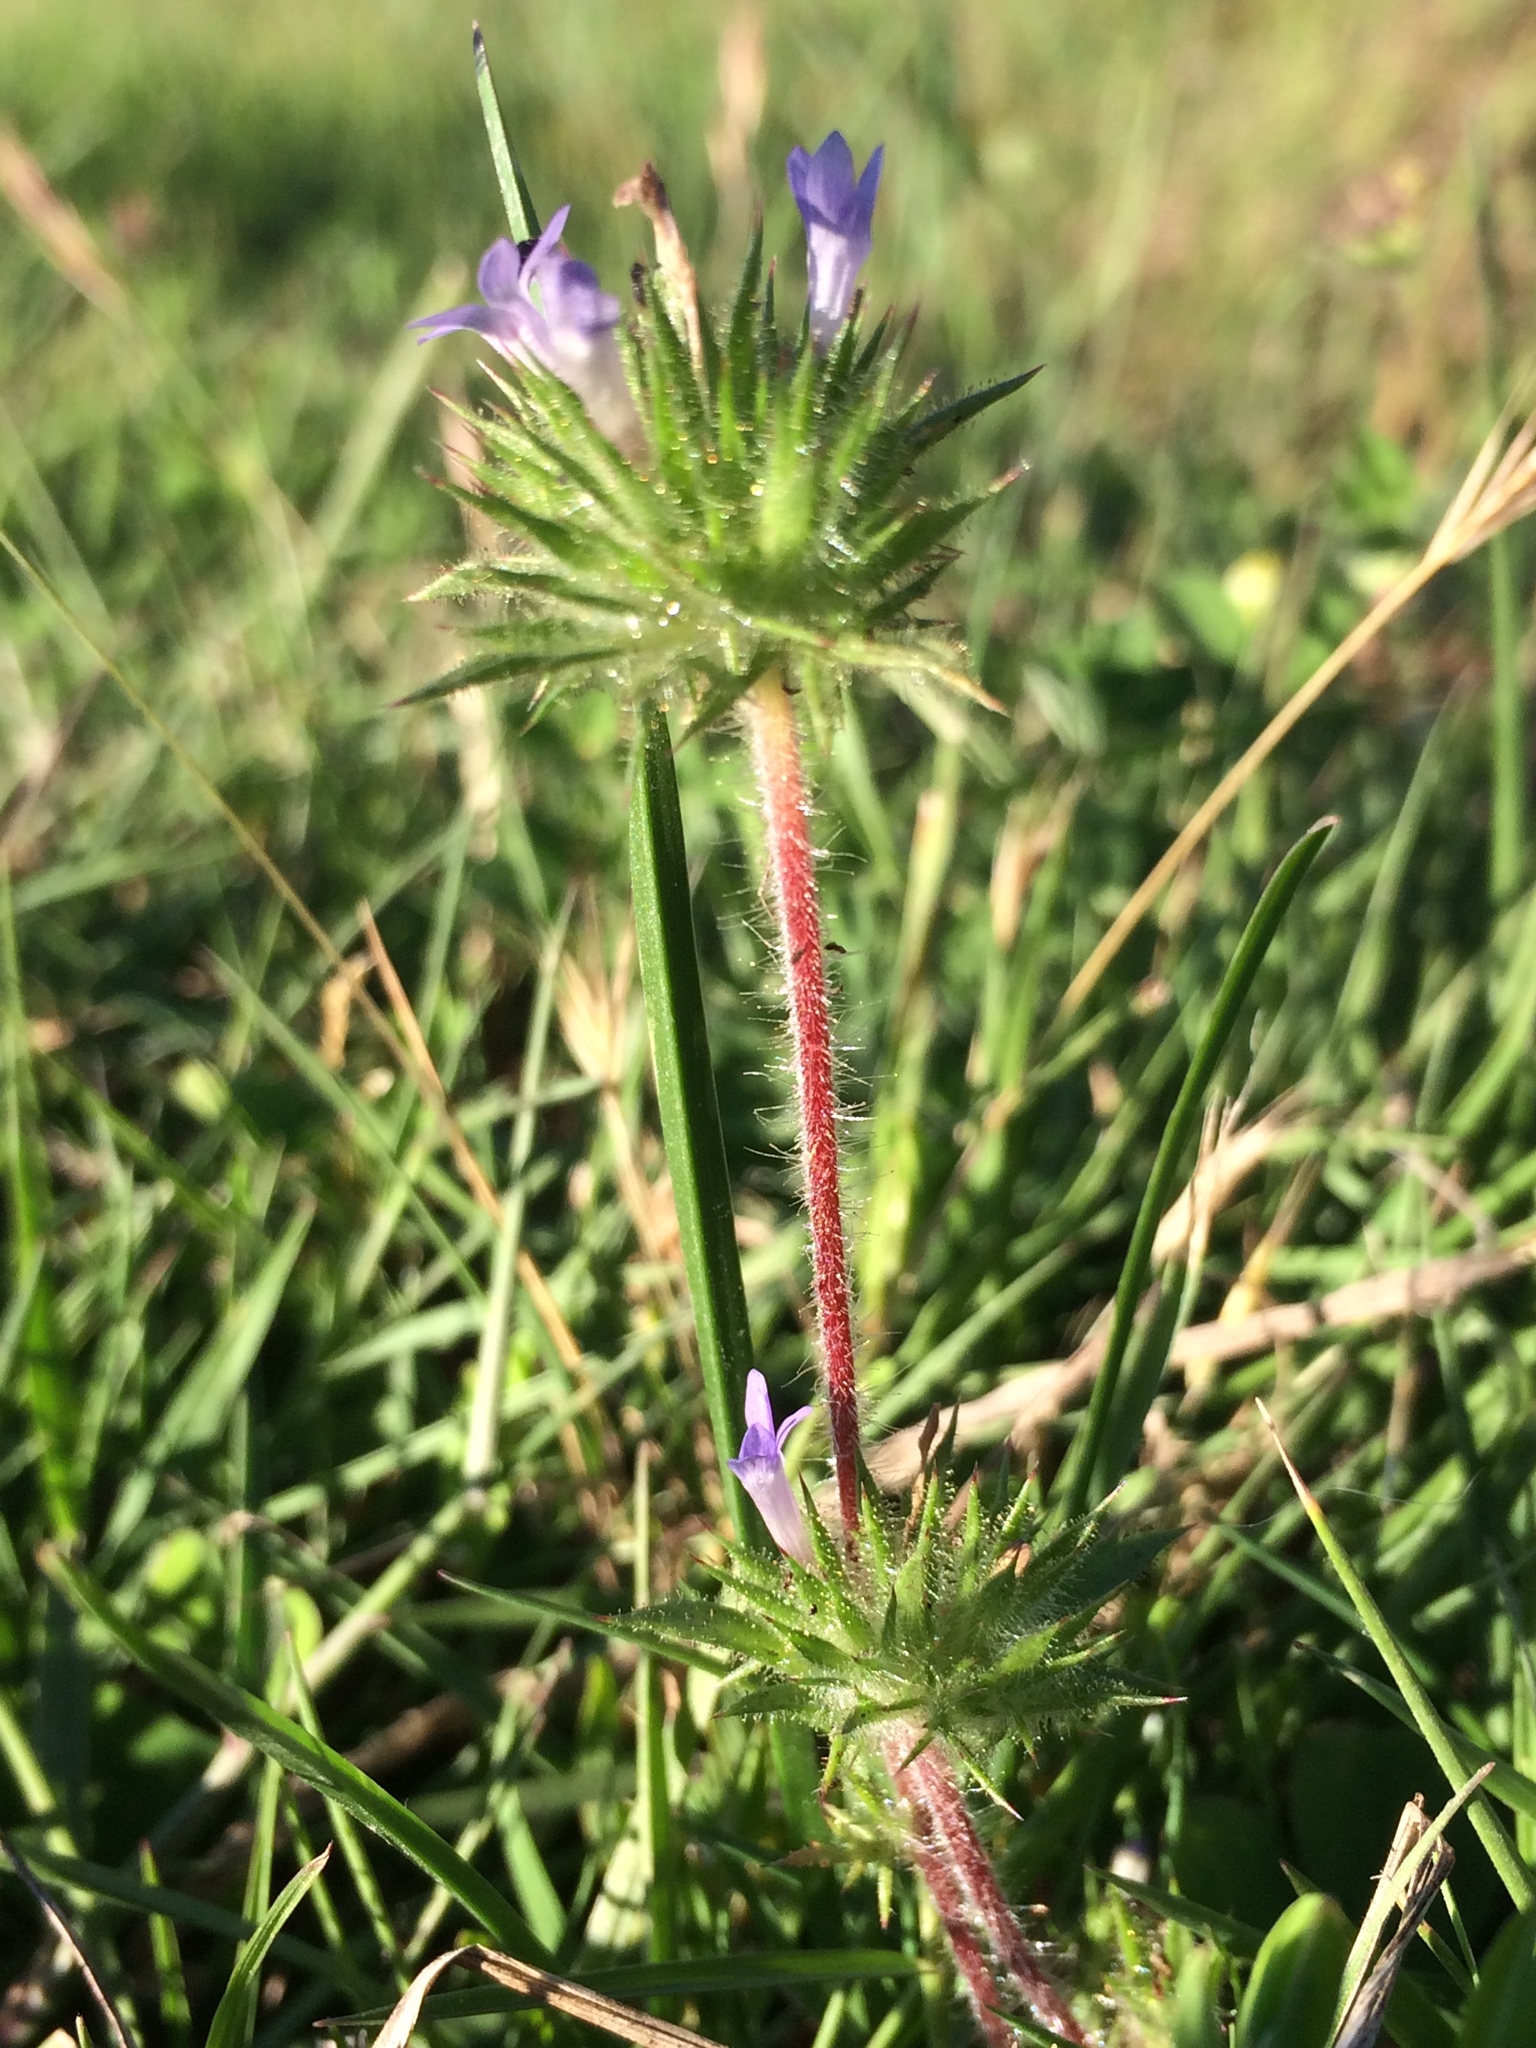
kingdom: Plantae
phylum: Tracheophyta
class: Magnoliopsida
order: Ericales
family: Polemoniaceae
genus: Navarretia
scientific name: Navarretia squarrosa
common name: Skunkweed
